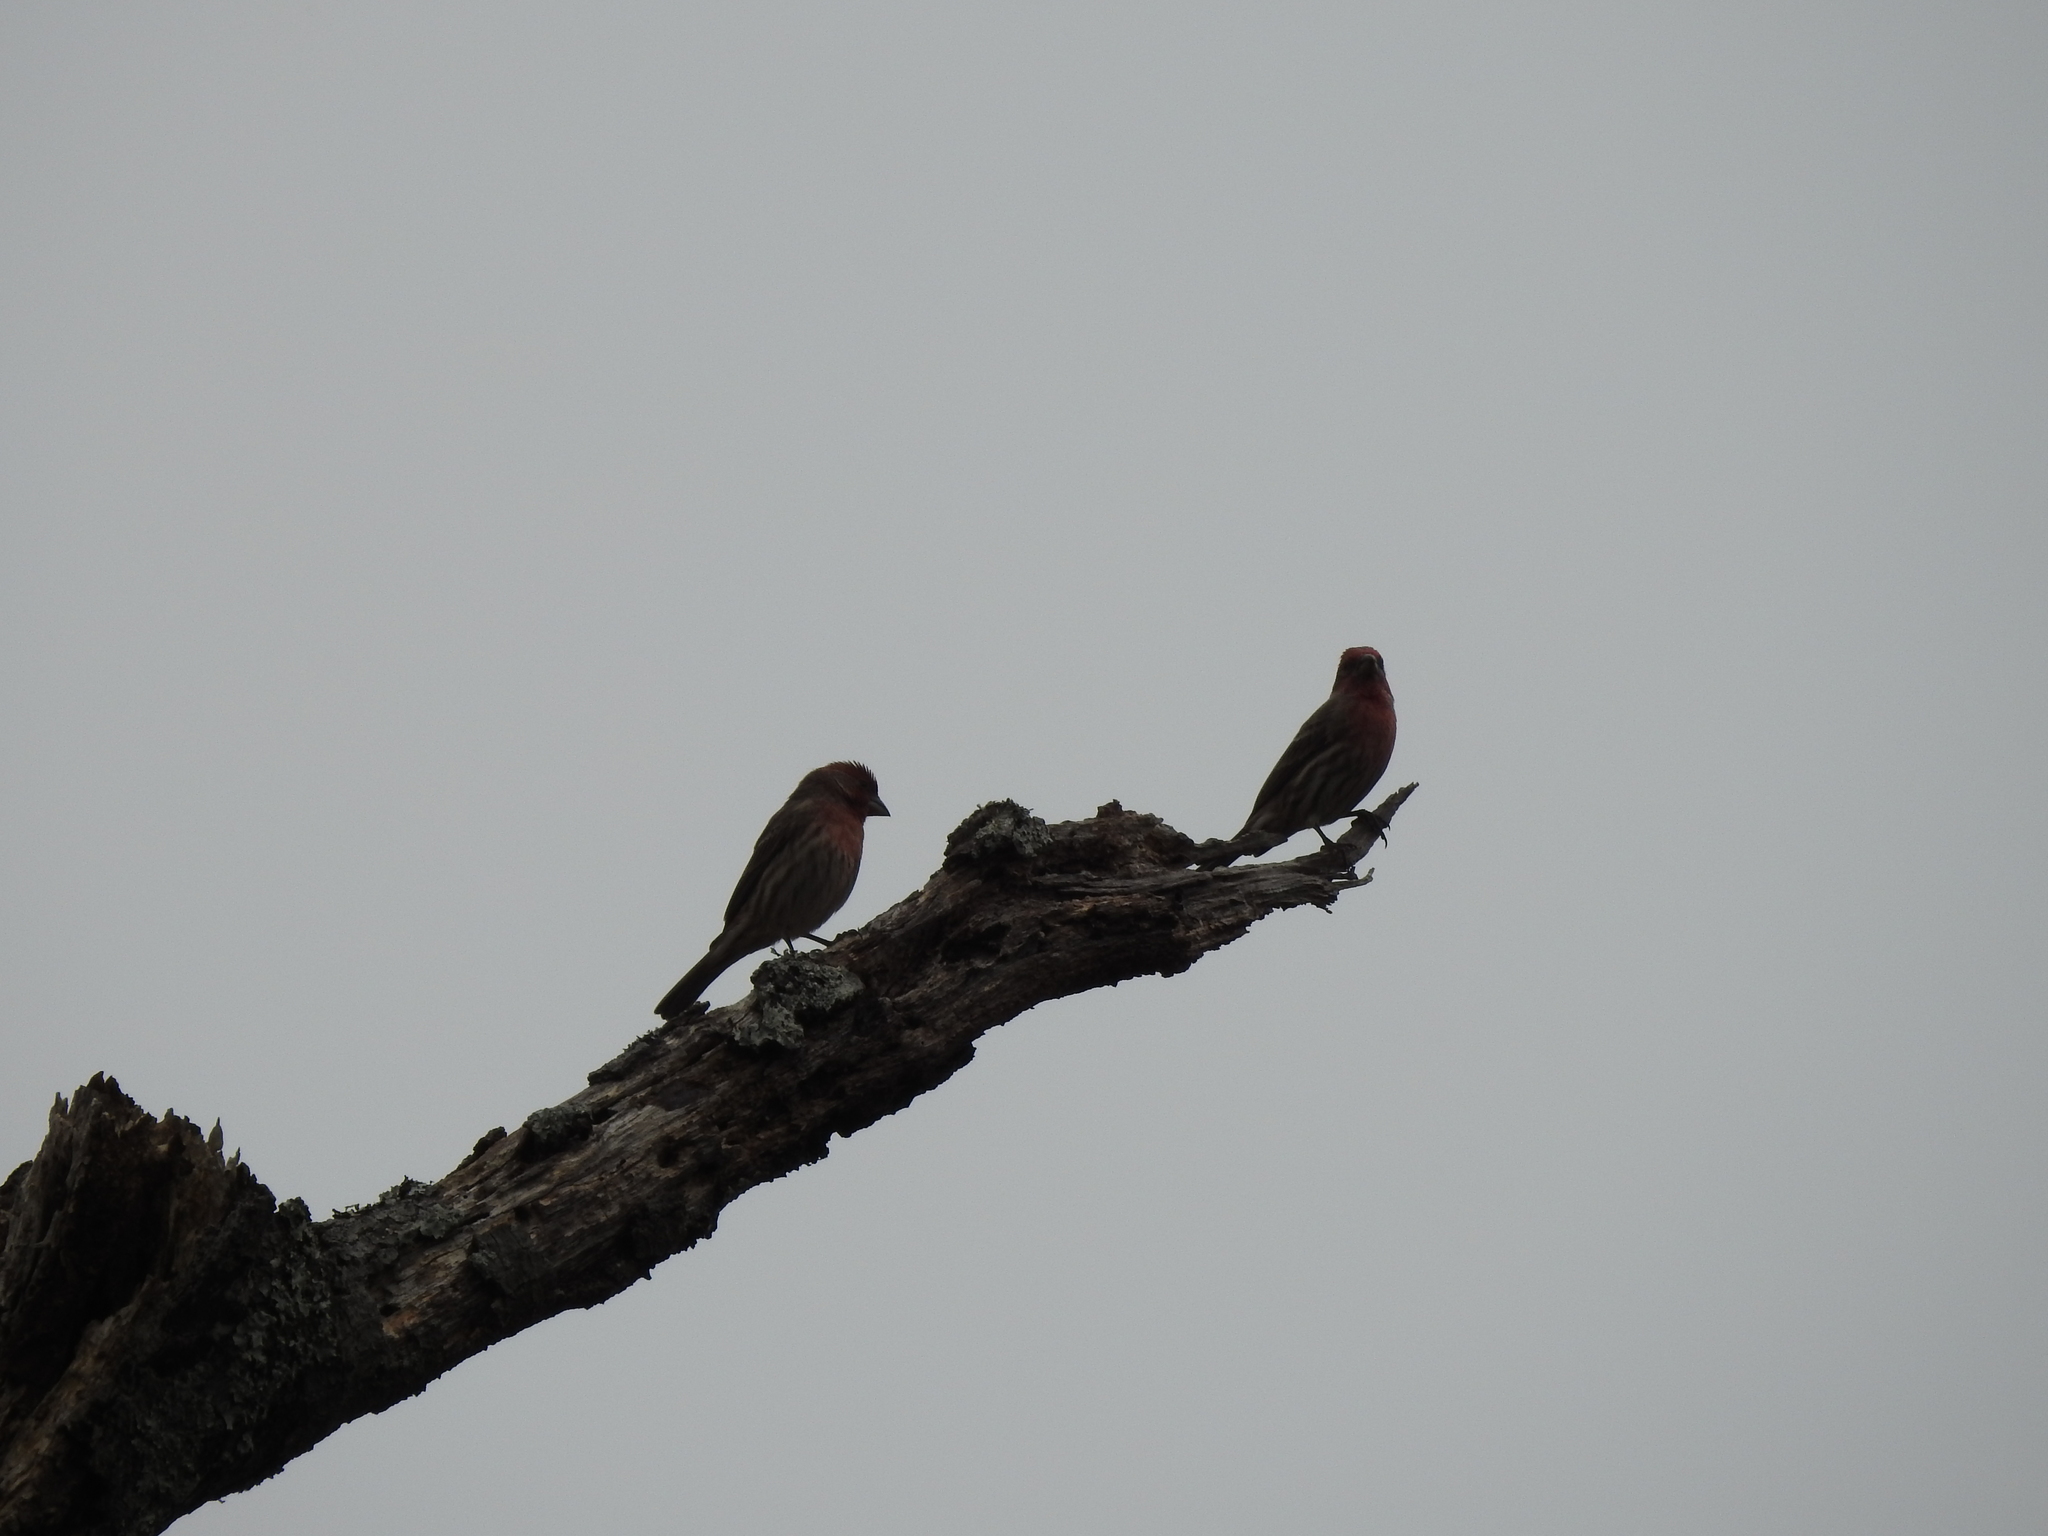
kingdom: Animalia
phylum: Chordata
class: Aves
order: Passeriformes
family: Fringillidae
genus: Haemorhous
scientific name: Haemorhous mexicanus
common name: House finch
